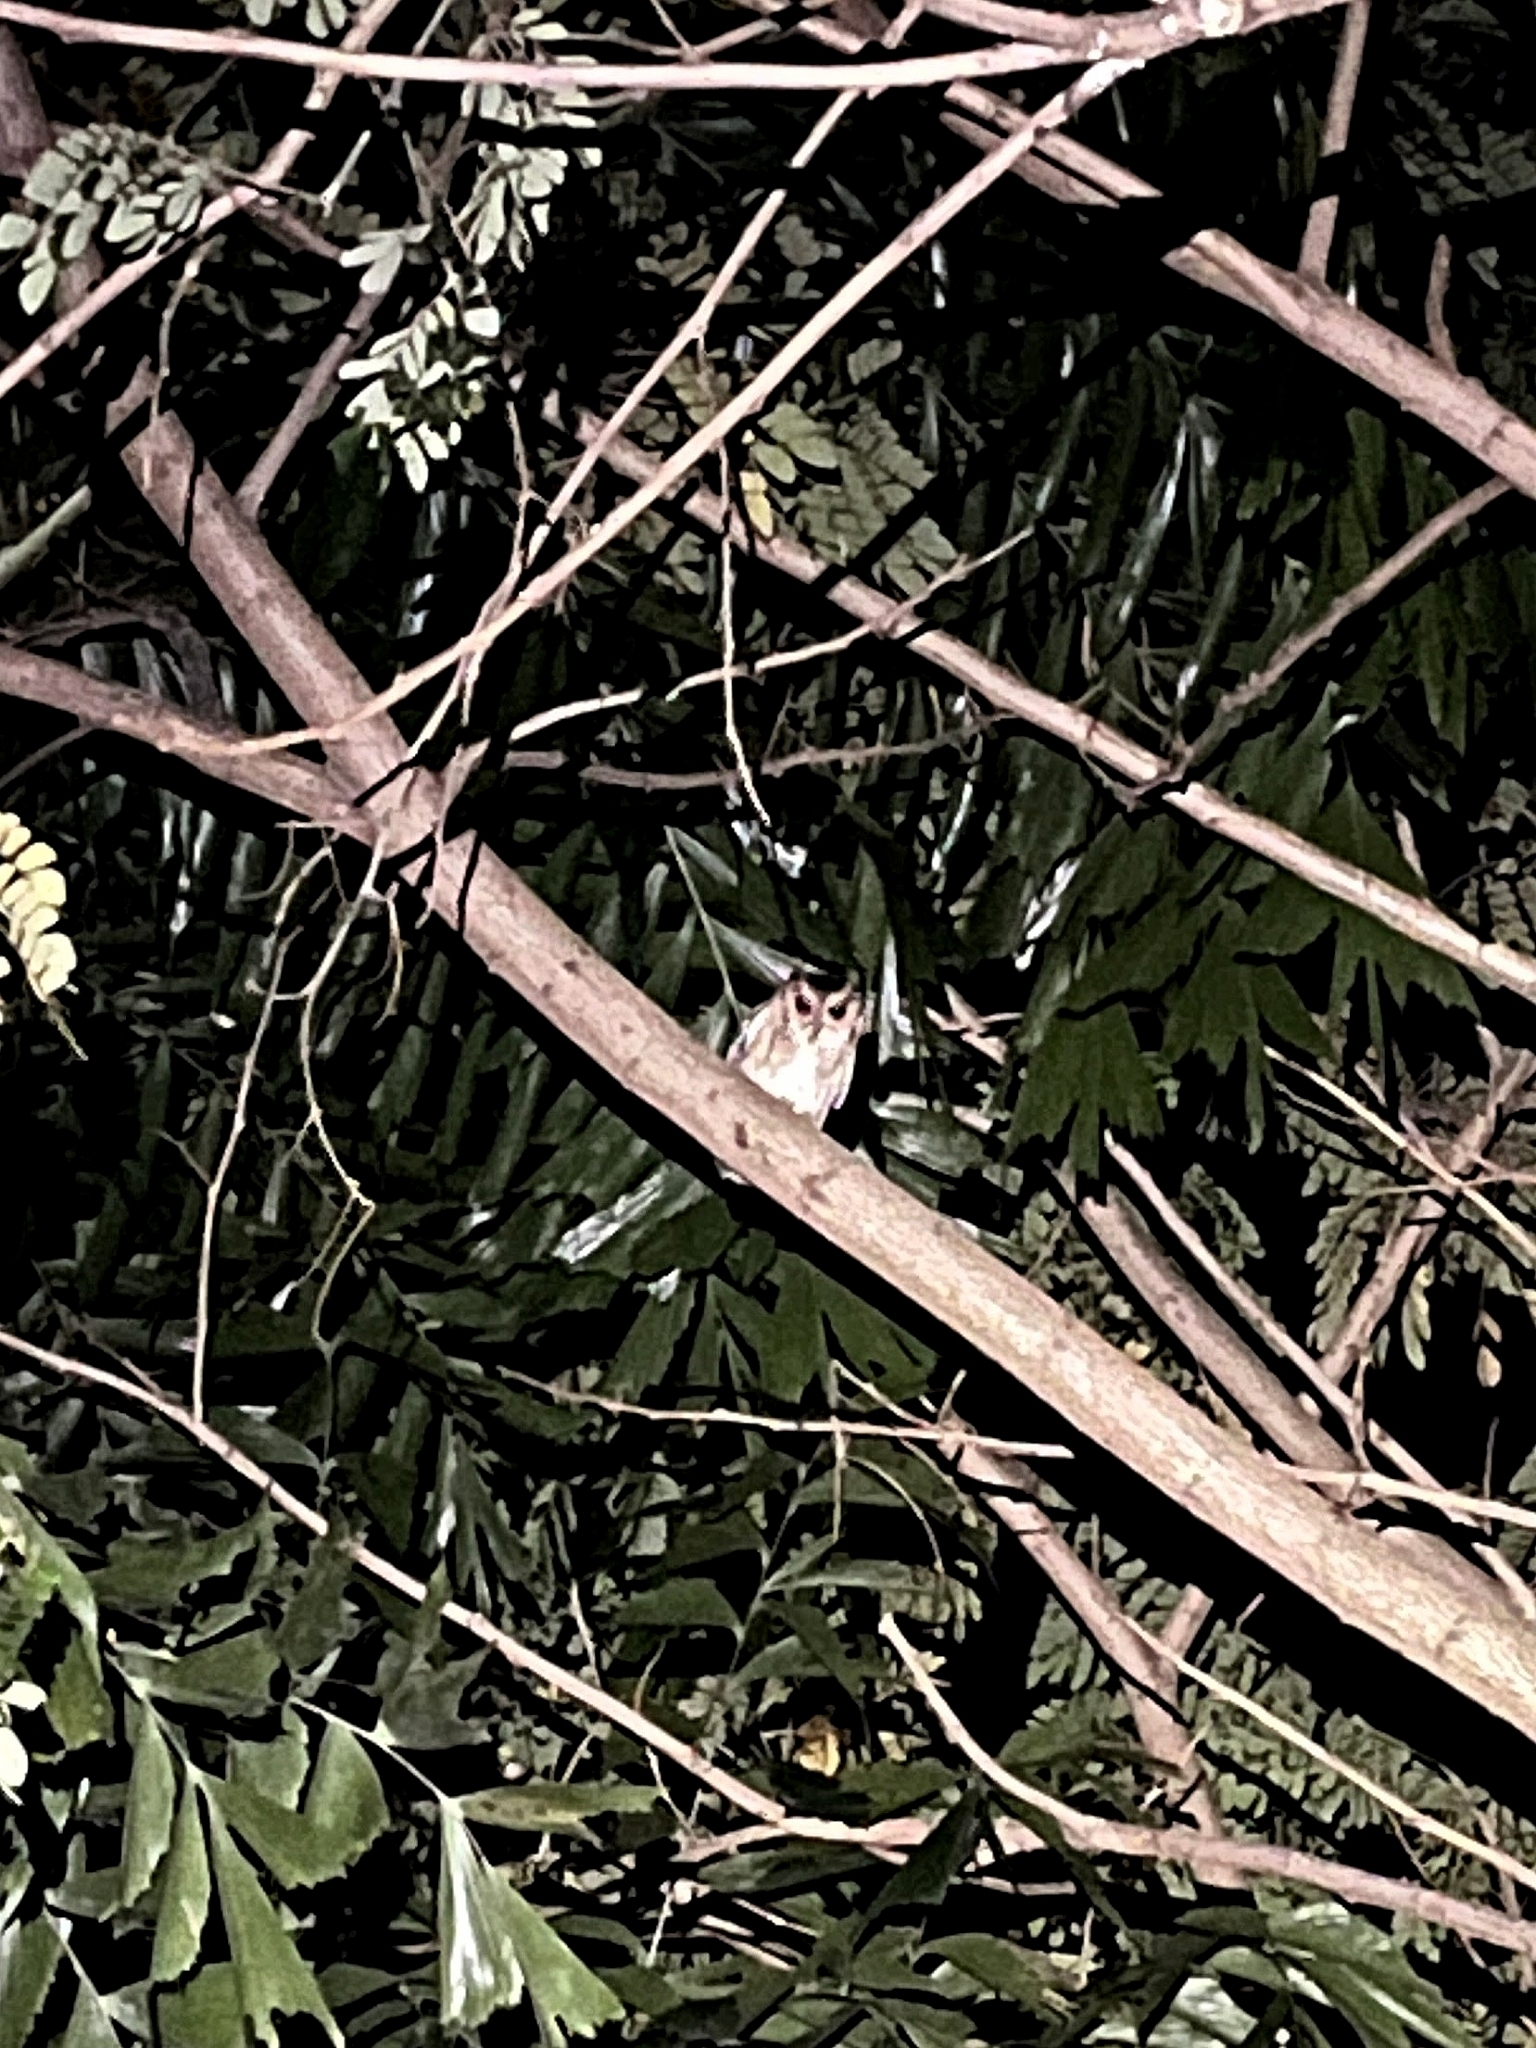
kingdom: Animalia
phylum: Chordata
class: Aves
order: Strigiformes
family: Strigidae
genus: Otus
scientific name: Otus bakkamoena
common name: Indian scops owl
